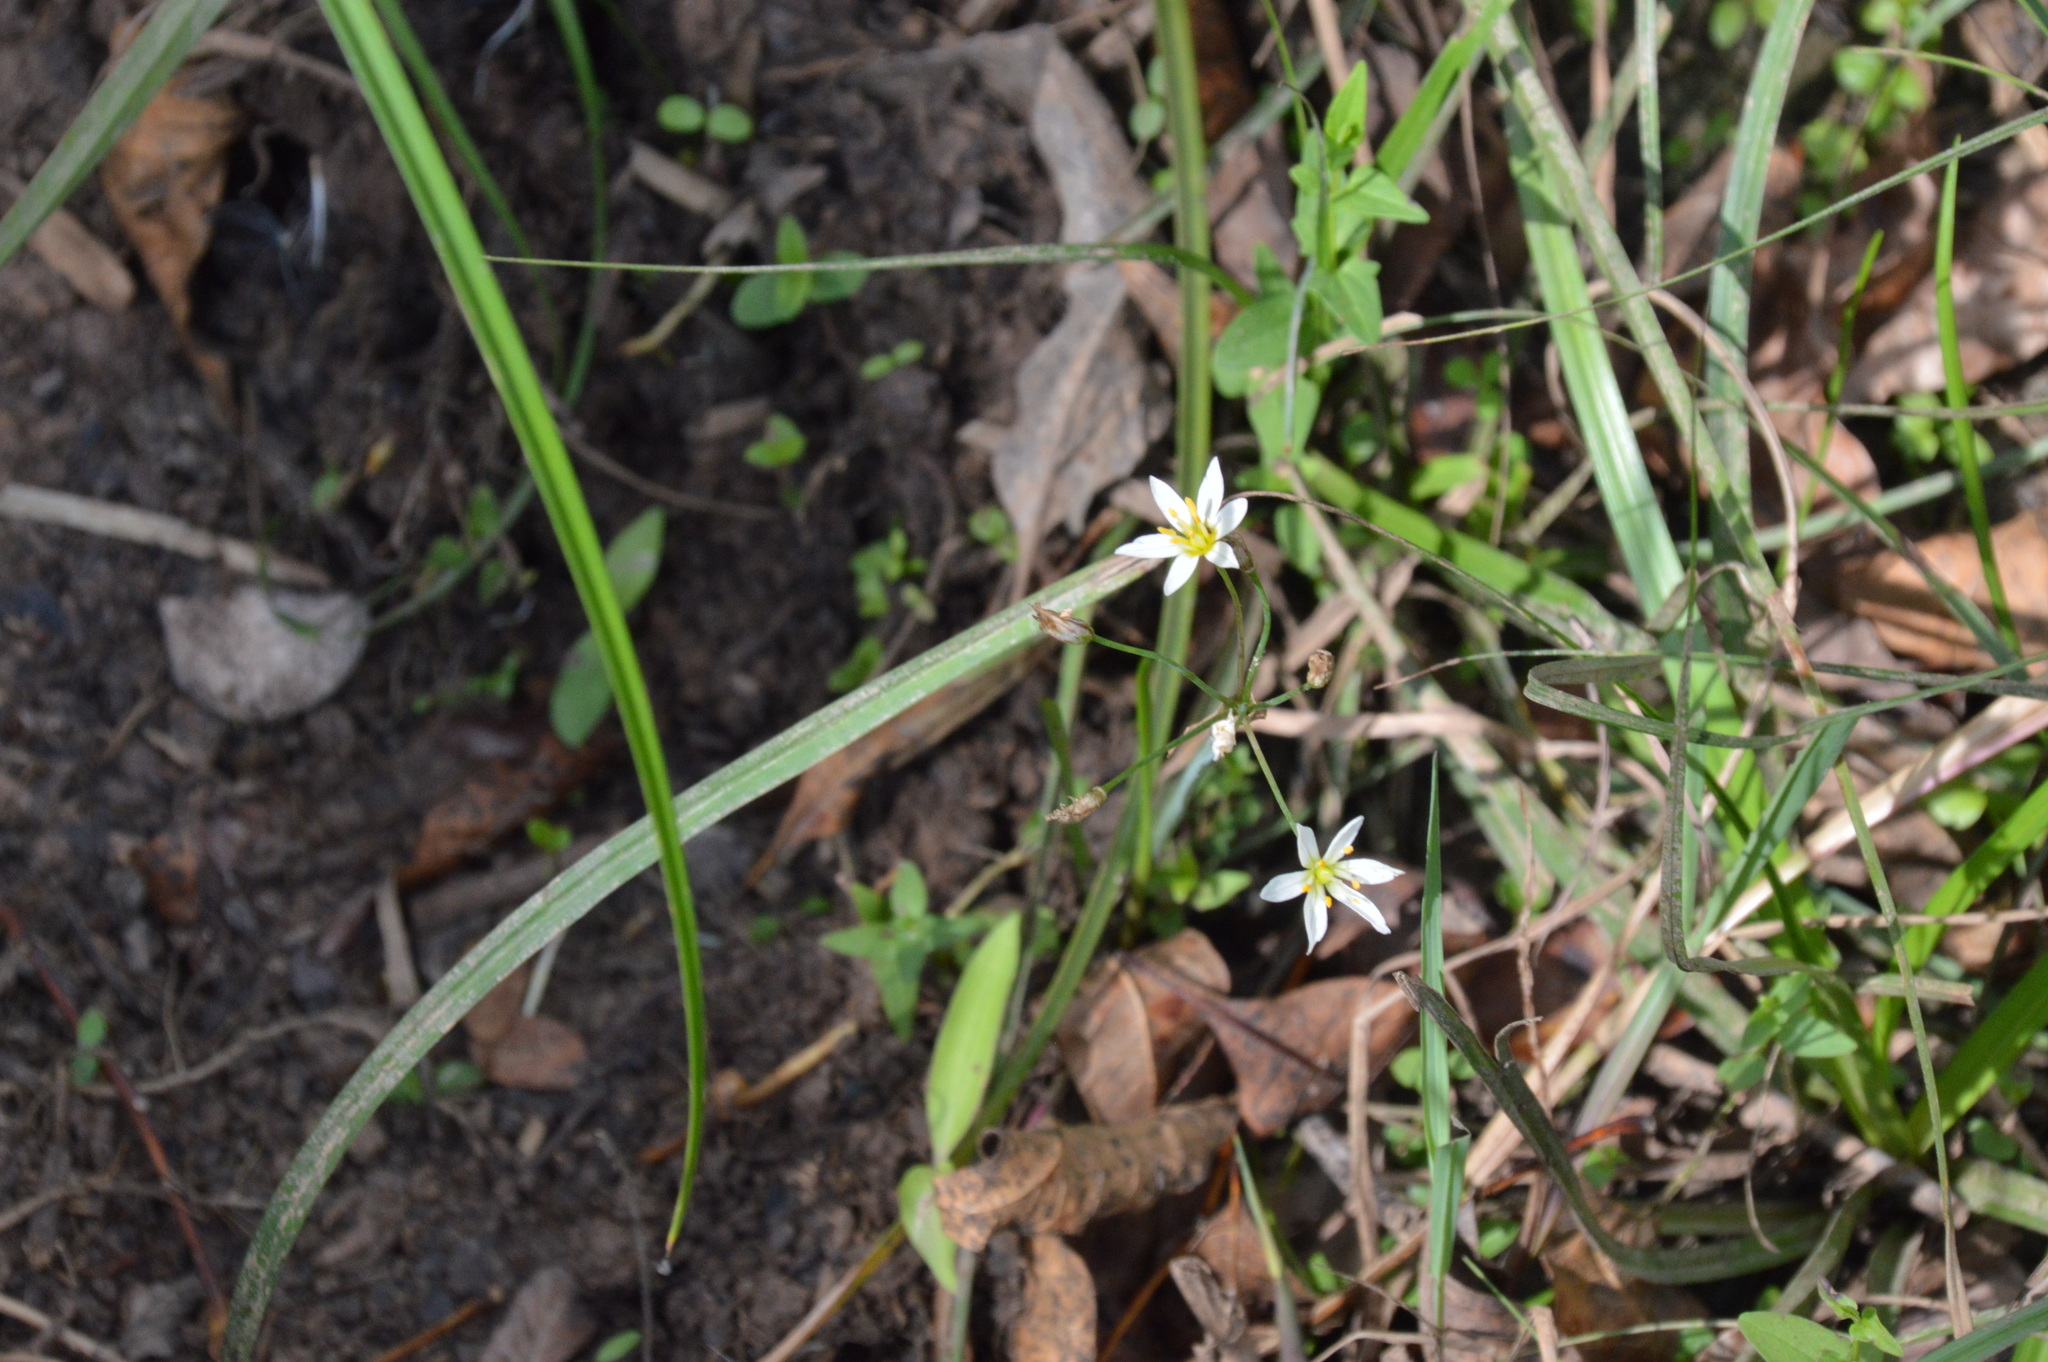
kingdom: Plantae
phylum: Tracheophyta
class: Liliopsida
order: Asparagales
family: Amaryllidaceae
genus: Nothoscordum
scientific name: Nothoscordum bivalve
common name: Crow-poison
